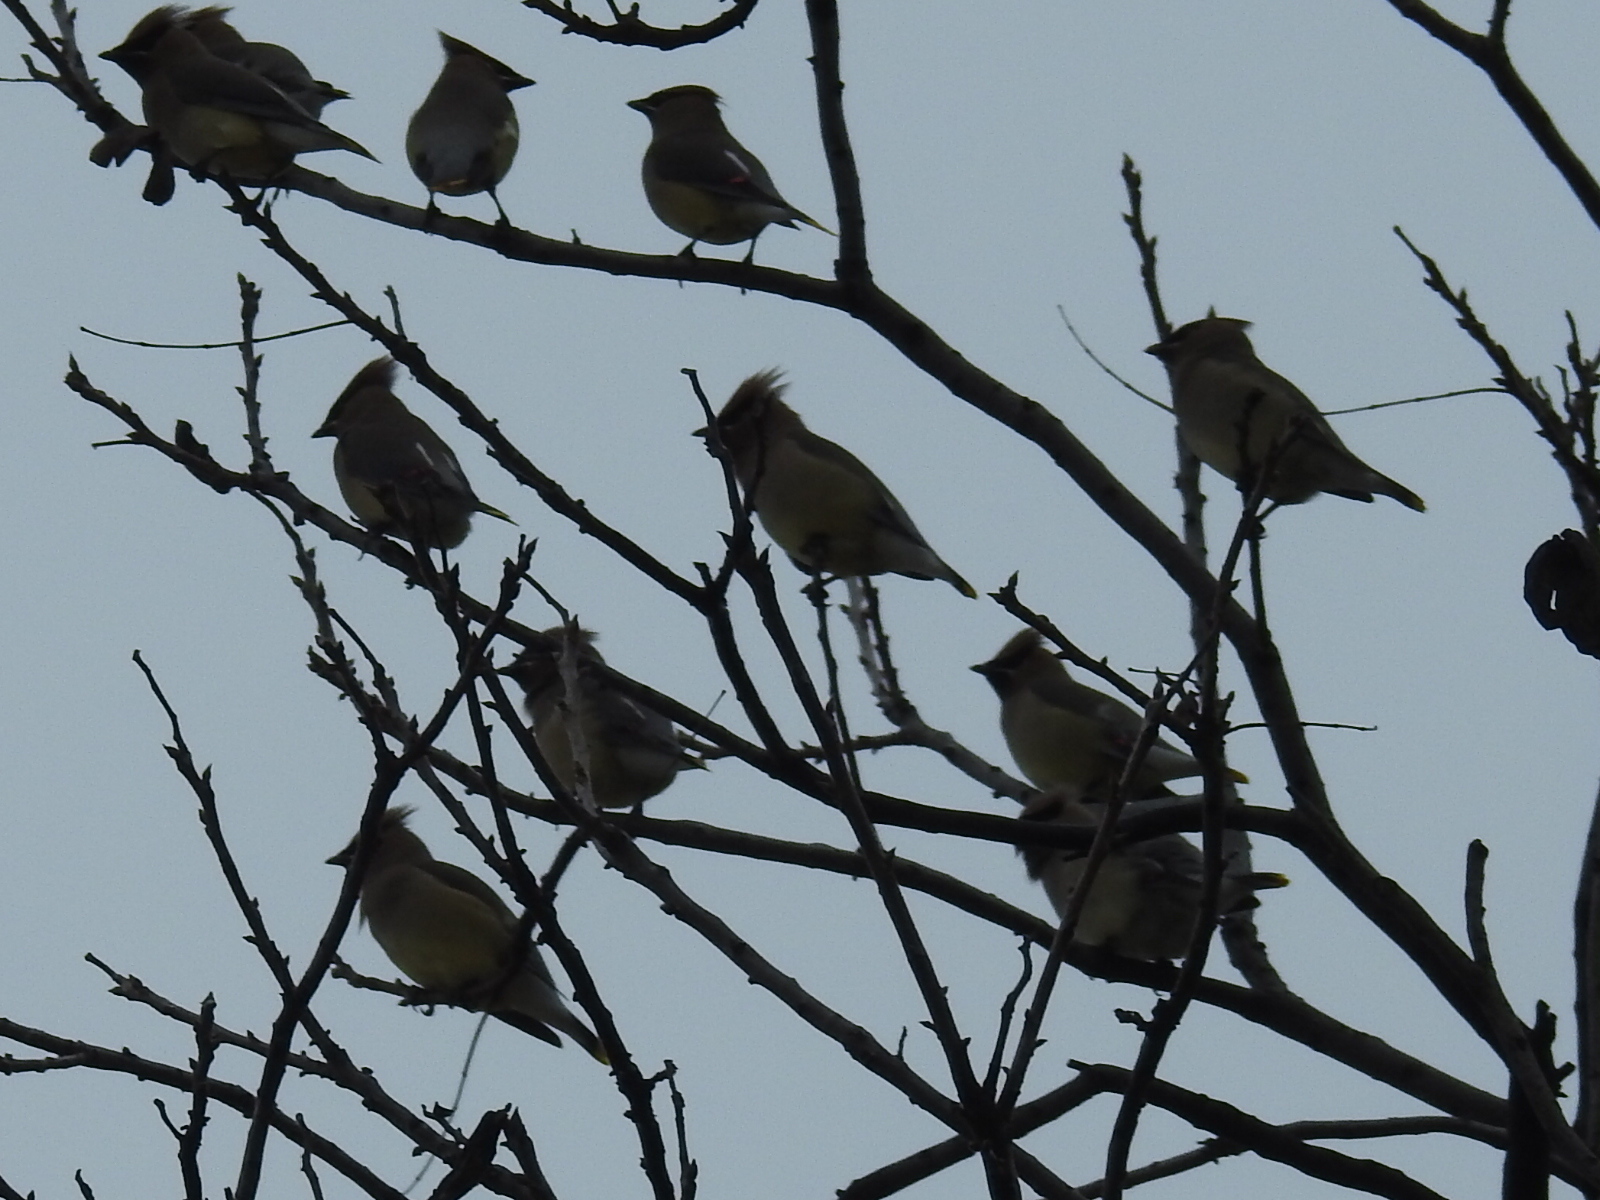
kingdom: Animalia
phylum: Chordata
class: Aves
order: Passeriformes
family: Bombycillidae
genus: Bombycilla
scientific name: Bombycilla cedrorum
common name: Cedar waxwing
